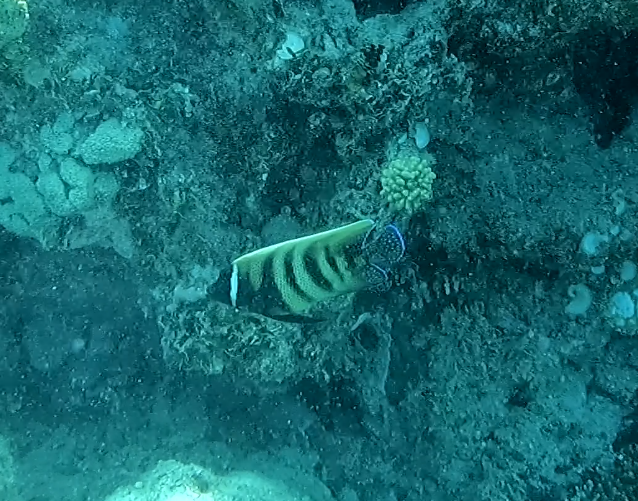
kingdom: Animalia
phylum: Chordata
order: Perciformes
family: Pomacanthidae
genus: Pomacanthus
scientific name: Pomacanthus sexstriatus
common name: Six-banded angelfish
